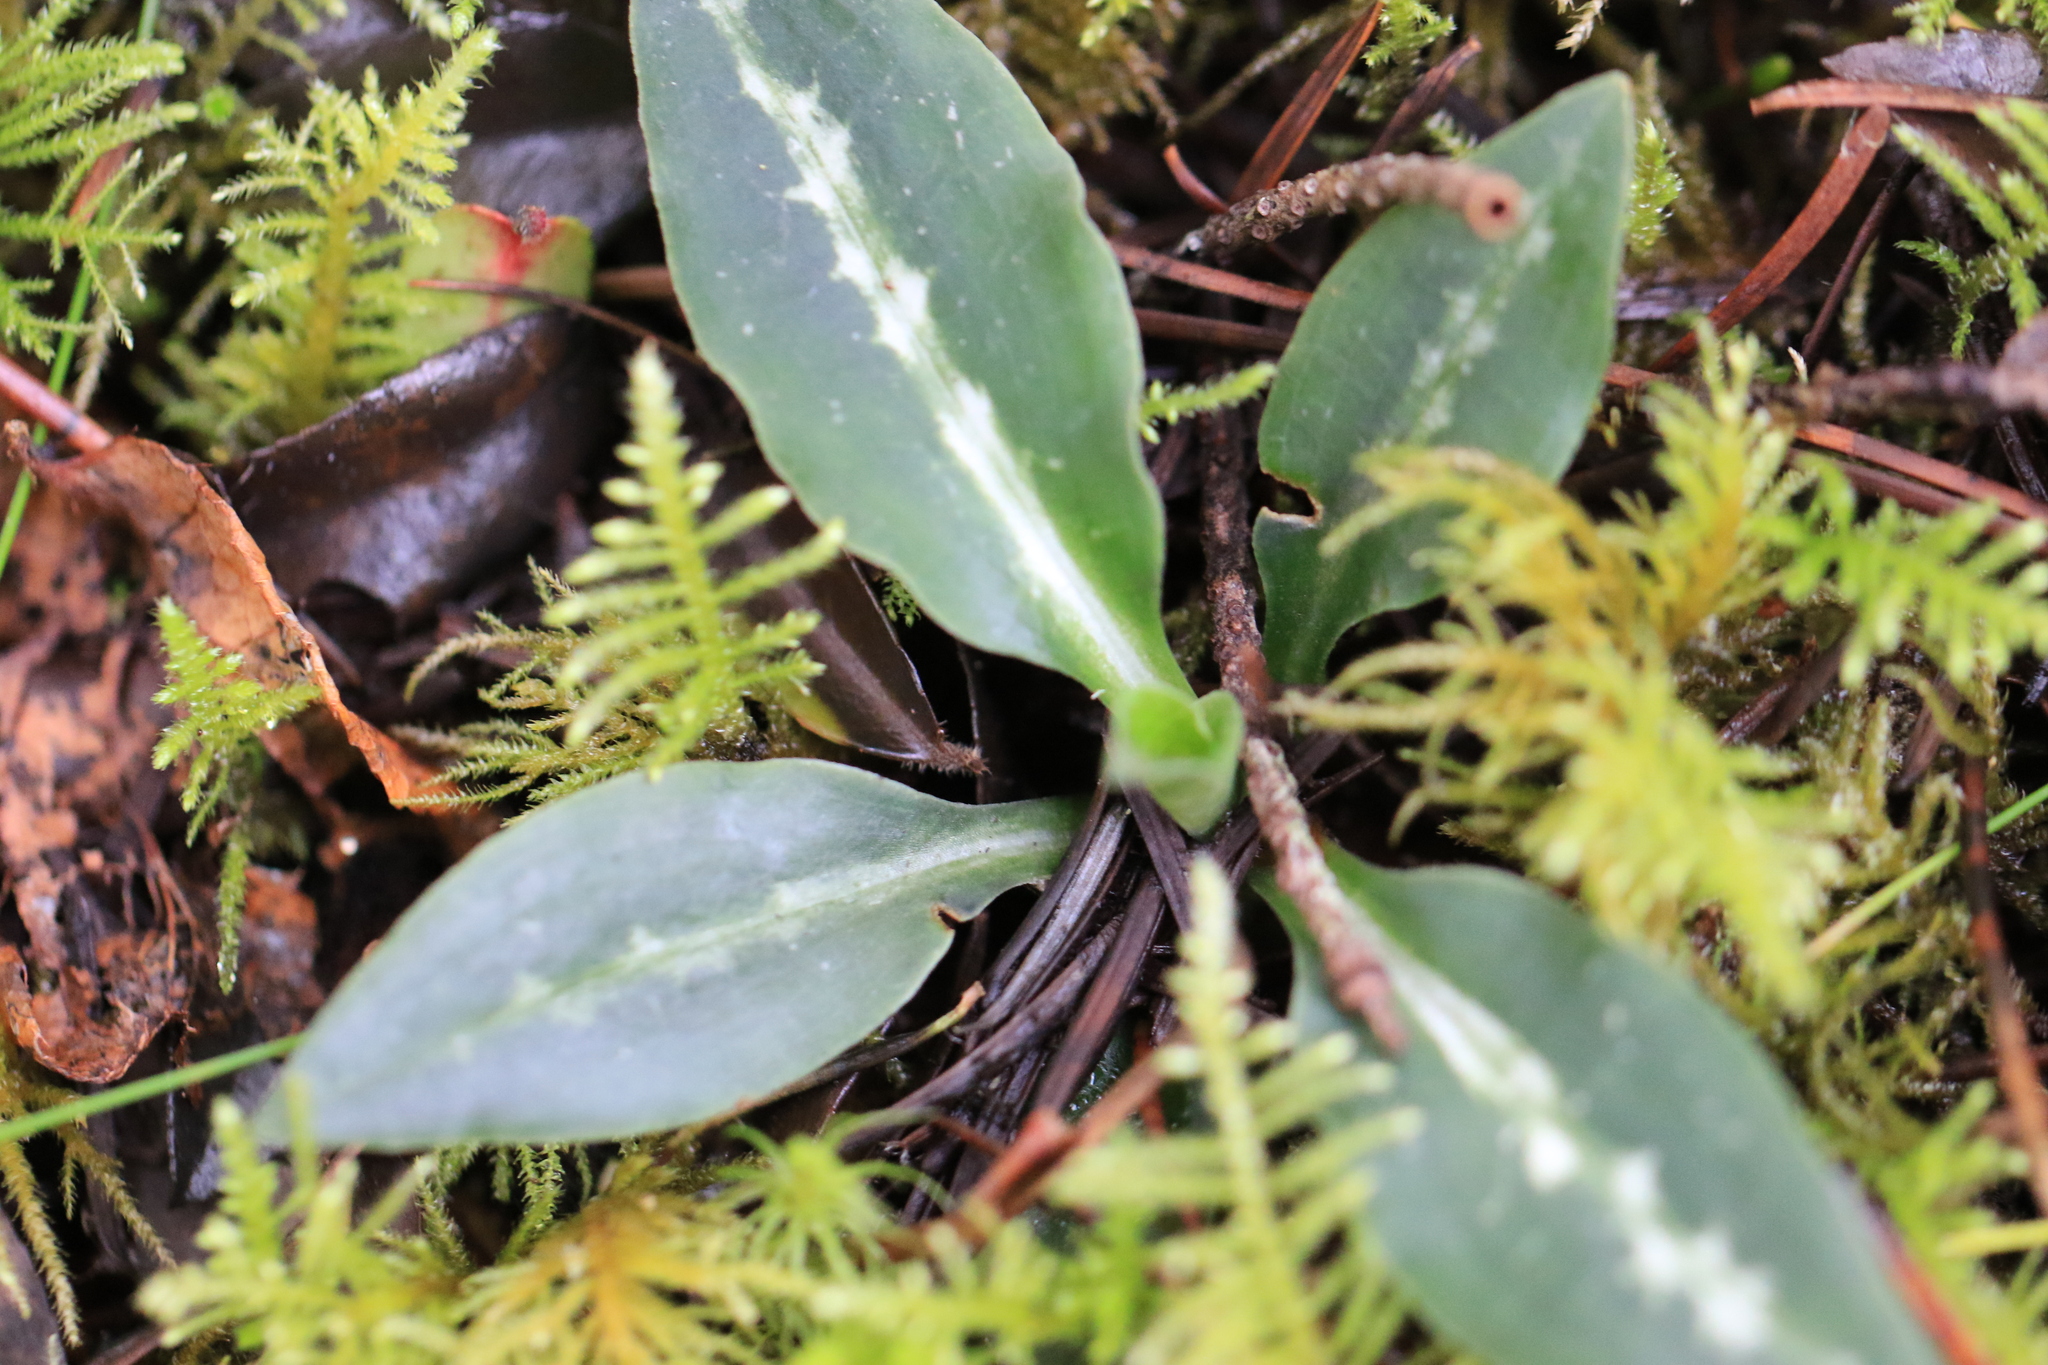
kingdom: Plantae
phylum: Tracheophyta
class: Liliopsida
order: Asparagales
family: Orchidaceae
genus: Goodyera
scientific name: Goodyera oblongifolia
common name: Giant rattlesnake-plantain
